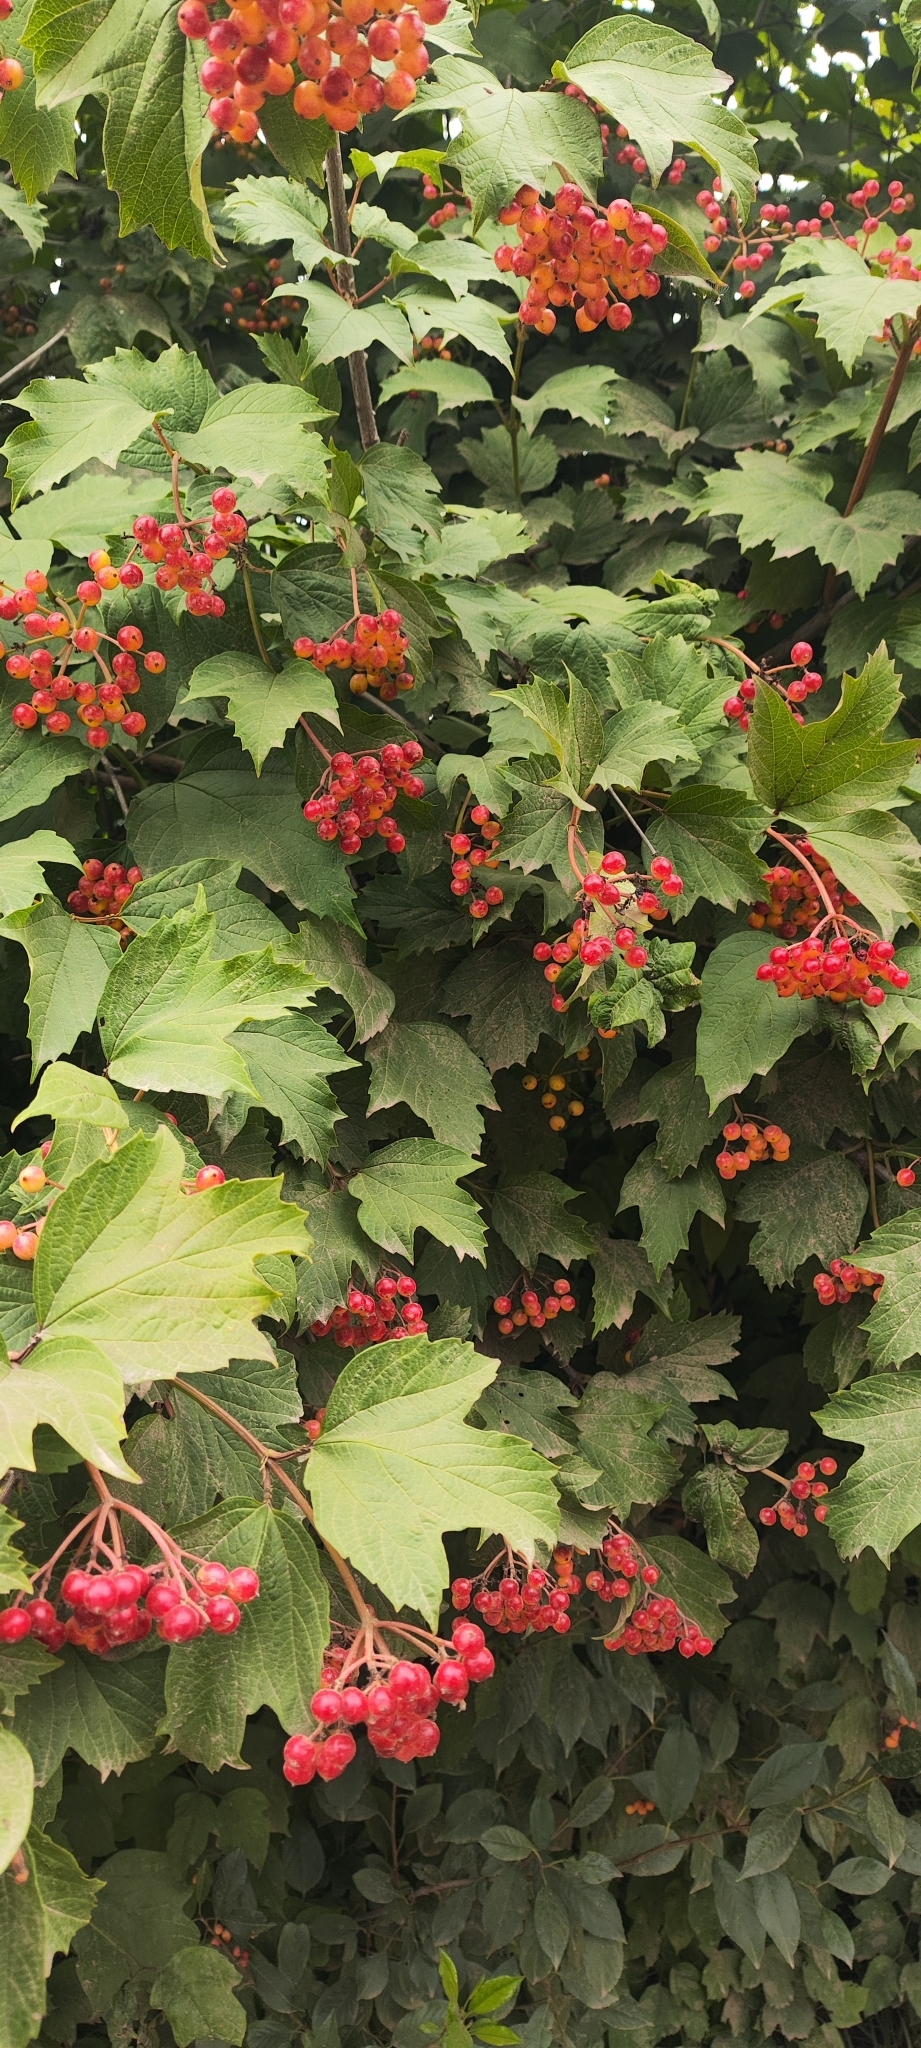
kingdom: Plantae
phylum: Tracheophyta
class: Magnoliopsida
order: Dipsacales
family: Viburnaceae
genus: Viburnum
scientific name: Viburnum opulus
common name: Guelder-rose
